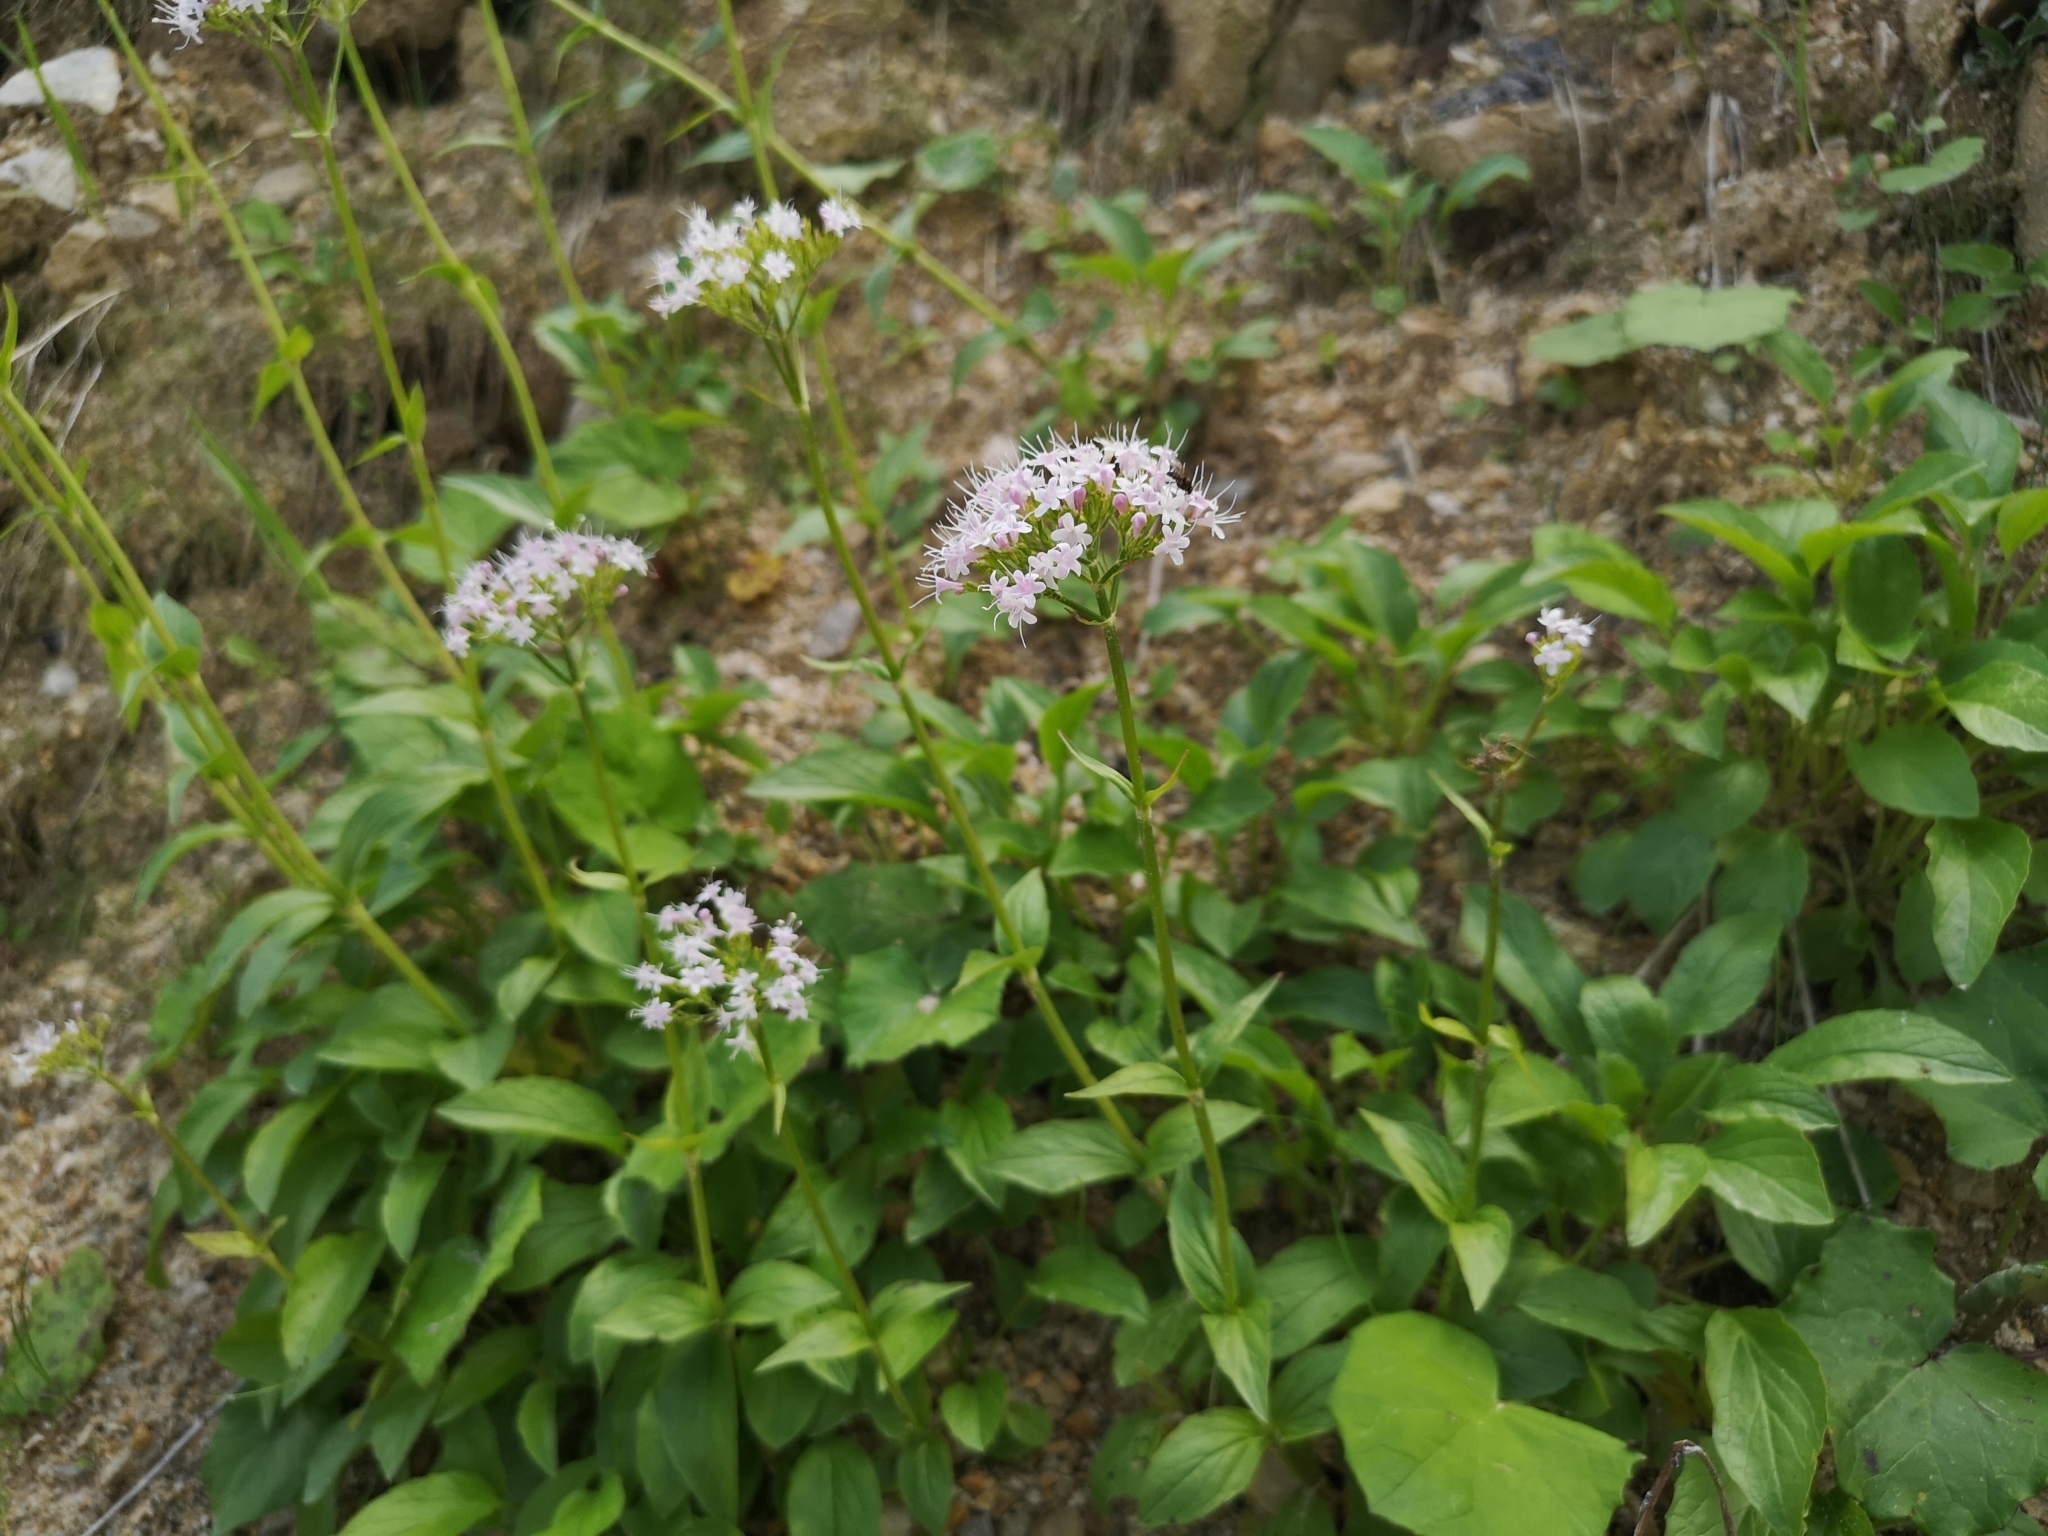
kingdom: Plantae
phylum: Tracheophyta
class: Magnoliopsida
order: Dipsacales
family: Caprifoliaceae
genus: Valeriana
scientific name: Valeriana montana
